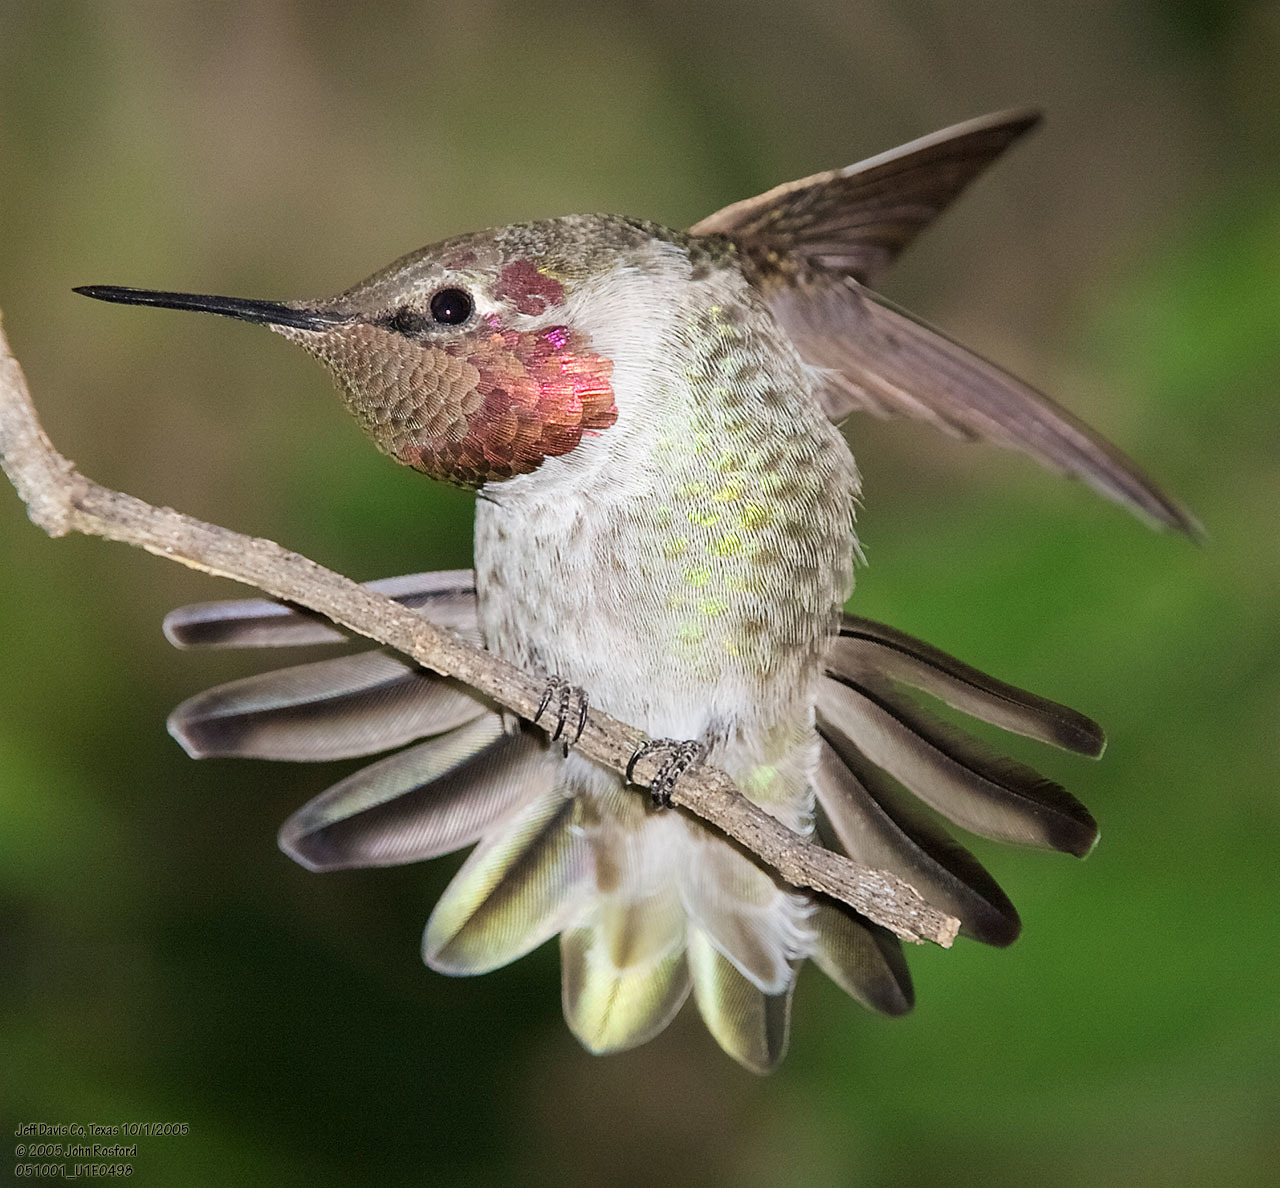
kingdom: Animalia
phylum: Chordata
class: Aves
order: Apodiformes
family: Trochilidae
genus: Calypte
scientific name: Calypte anna
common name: Anna's hummingbird
